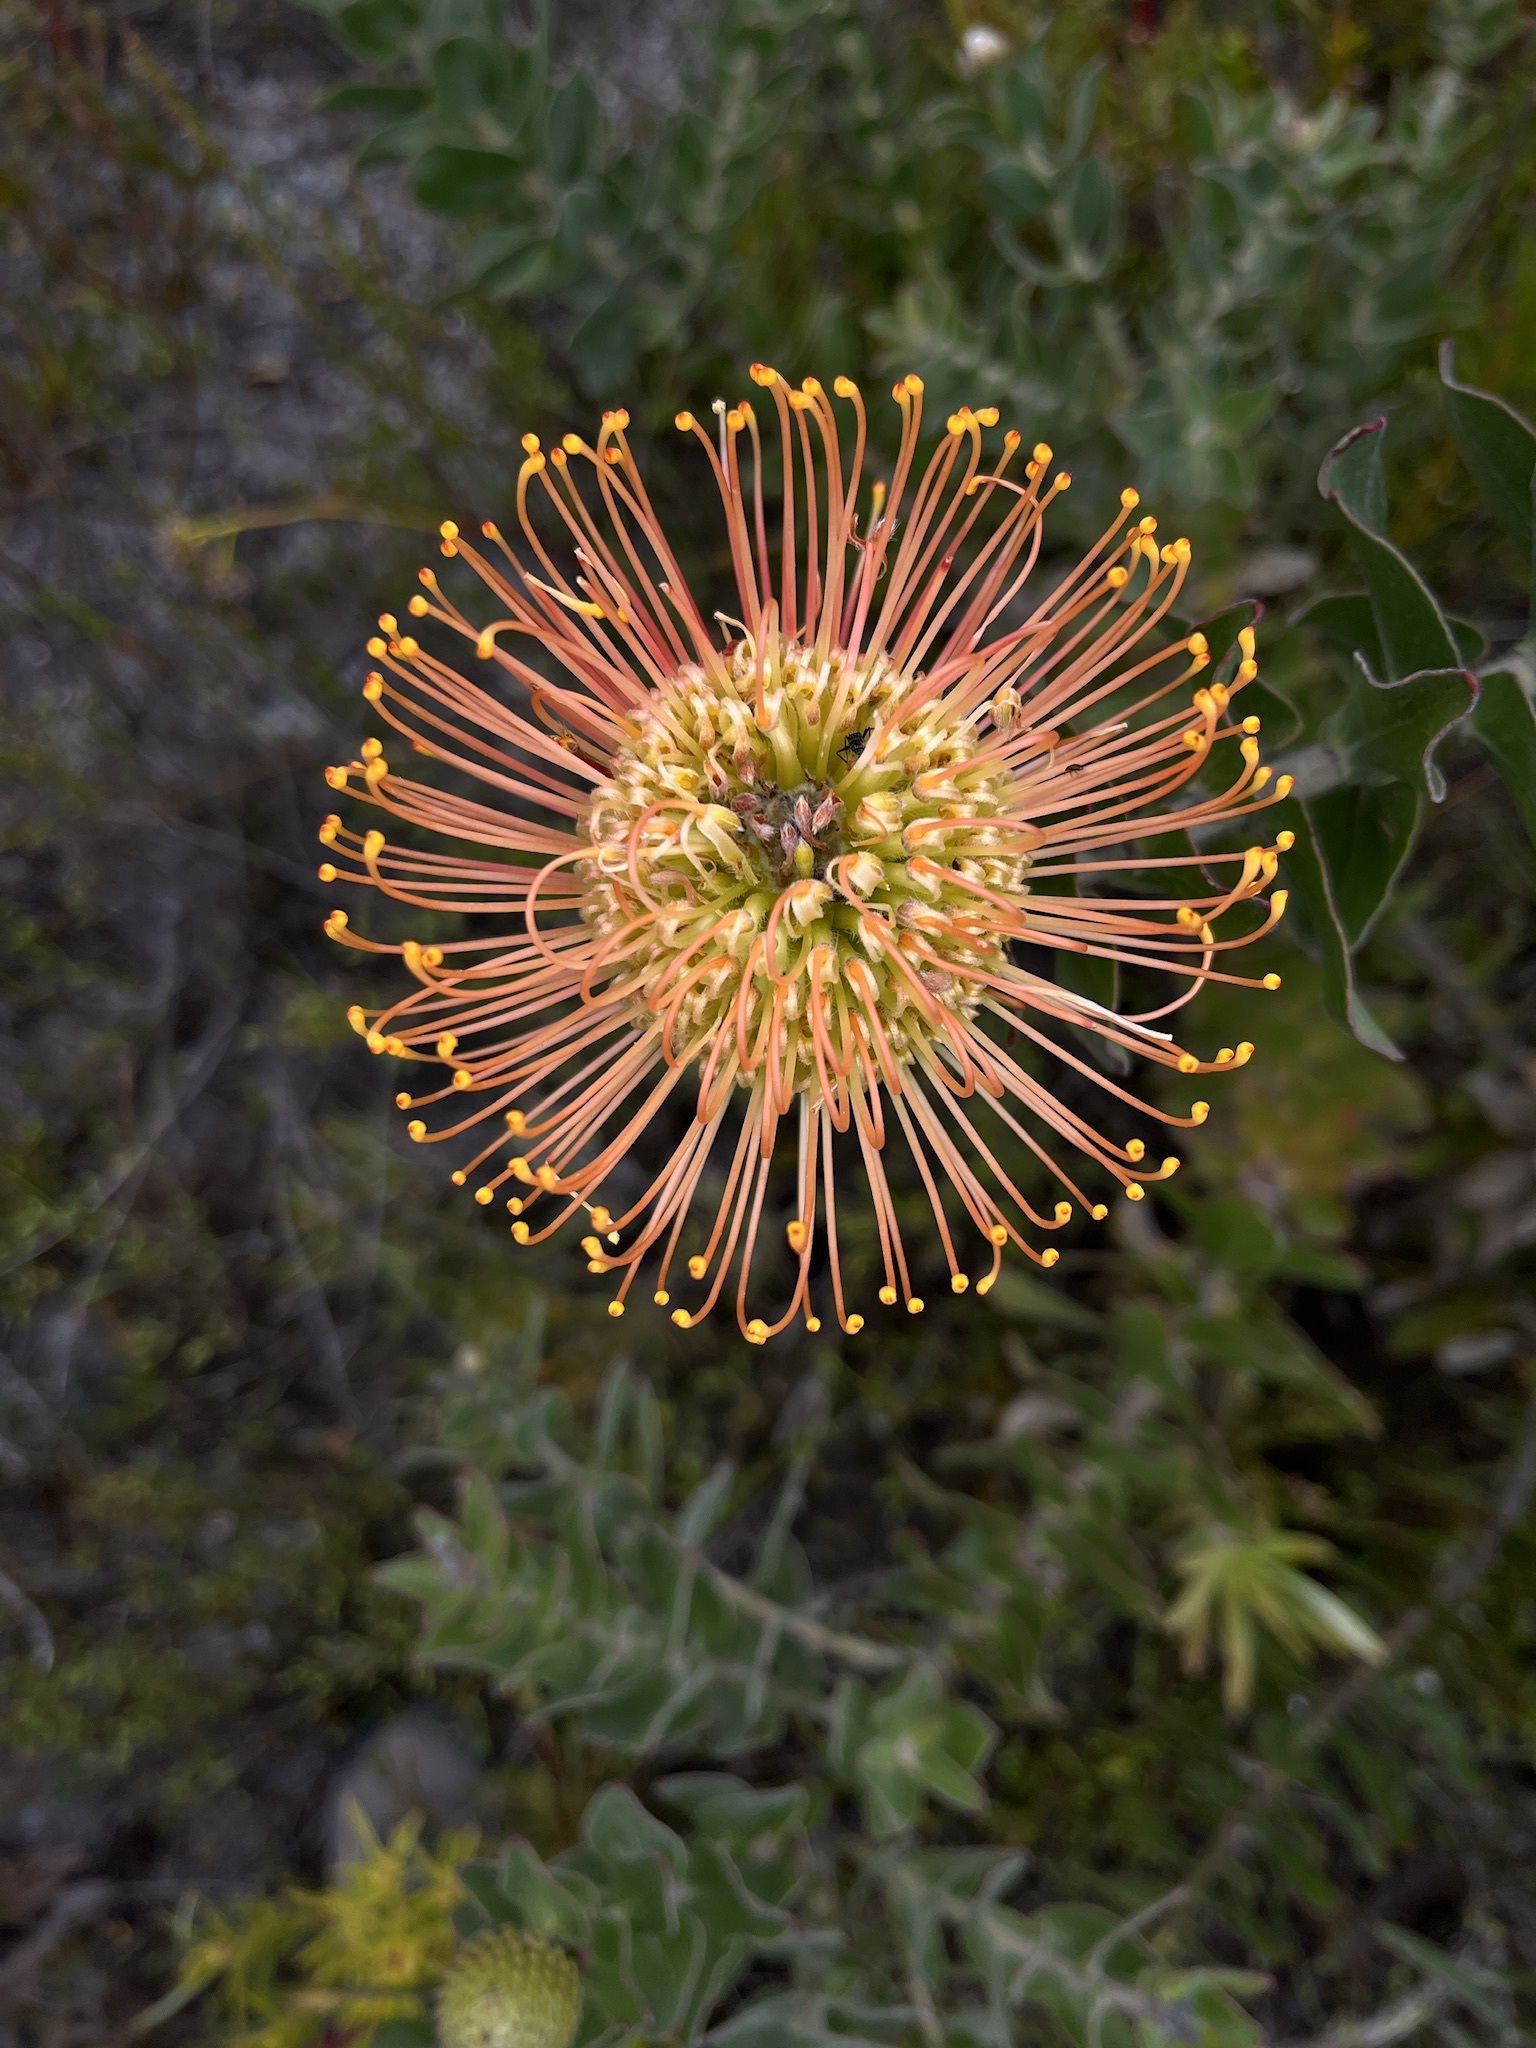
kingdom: Plantae
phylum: Tracheophyta
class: Magnoliopsida
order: Proteales
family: Proteaceae
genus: Leucospermum
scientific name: Leucospermum cordifolium
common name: Red pincushion-protea
